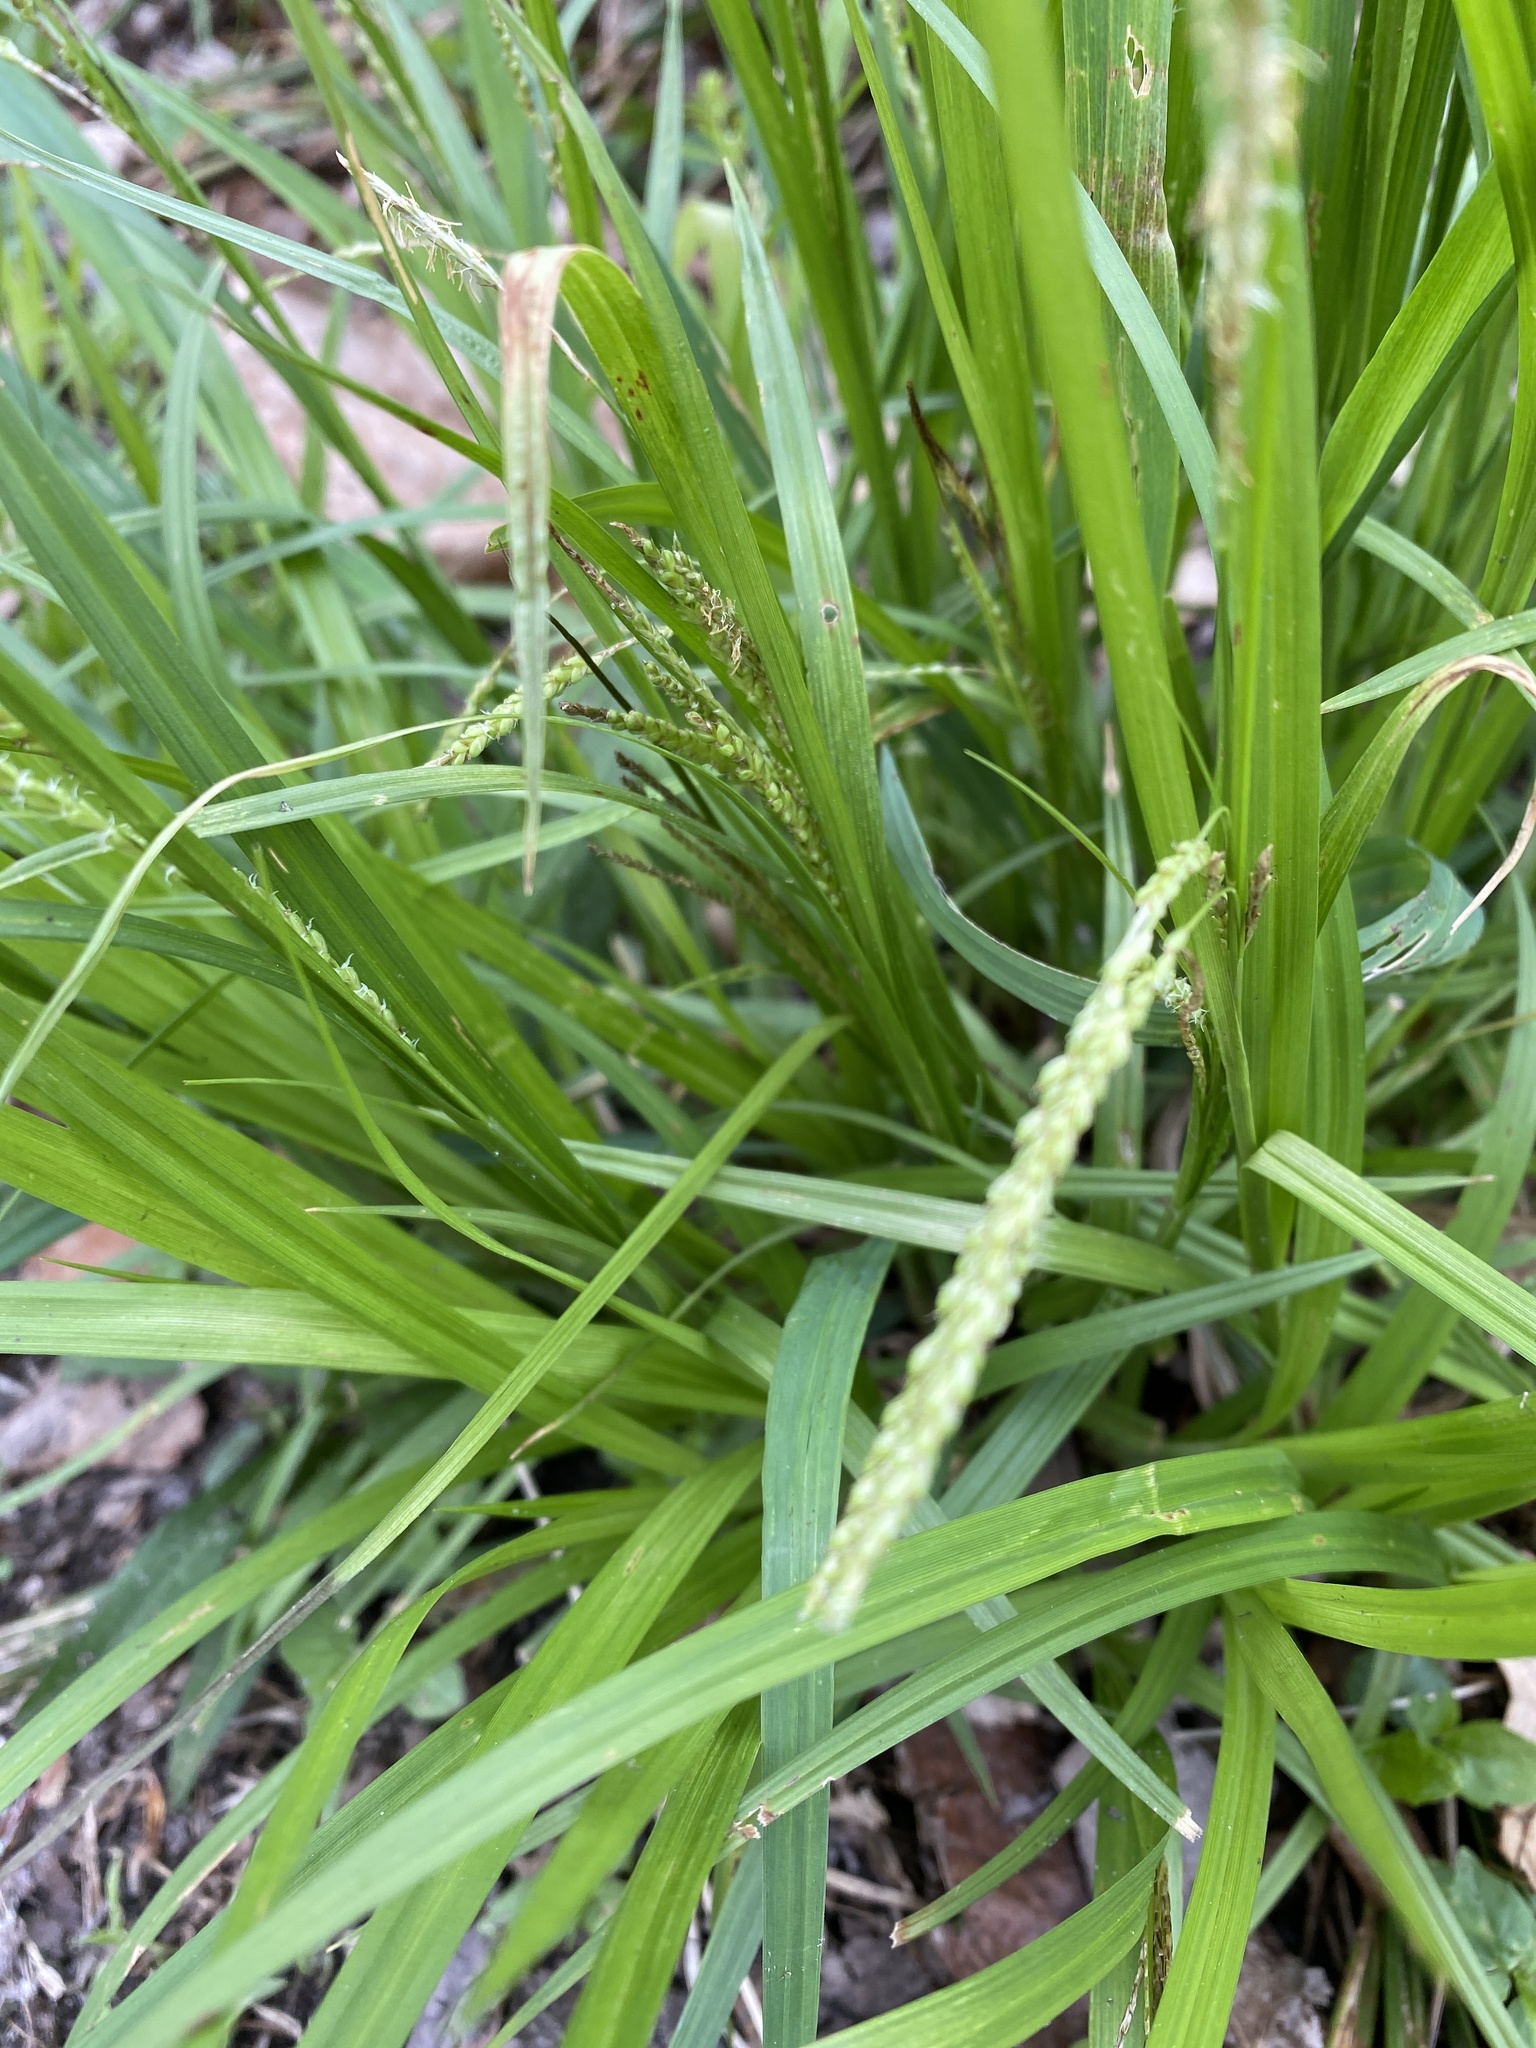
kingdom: Plantae
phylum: Tracheophyta
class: Liliopsida
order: Poales
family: Cyperaceae
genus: Carex
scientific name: Carex gracillima
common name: Graceful sedge
